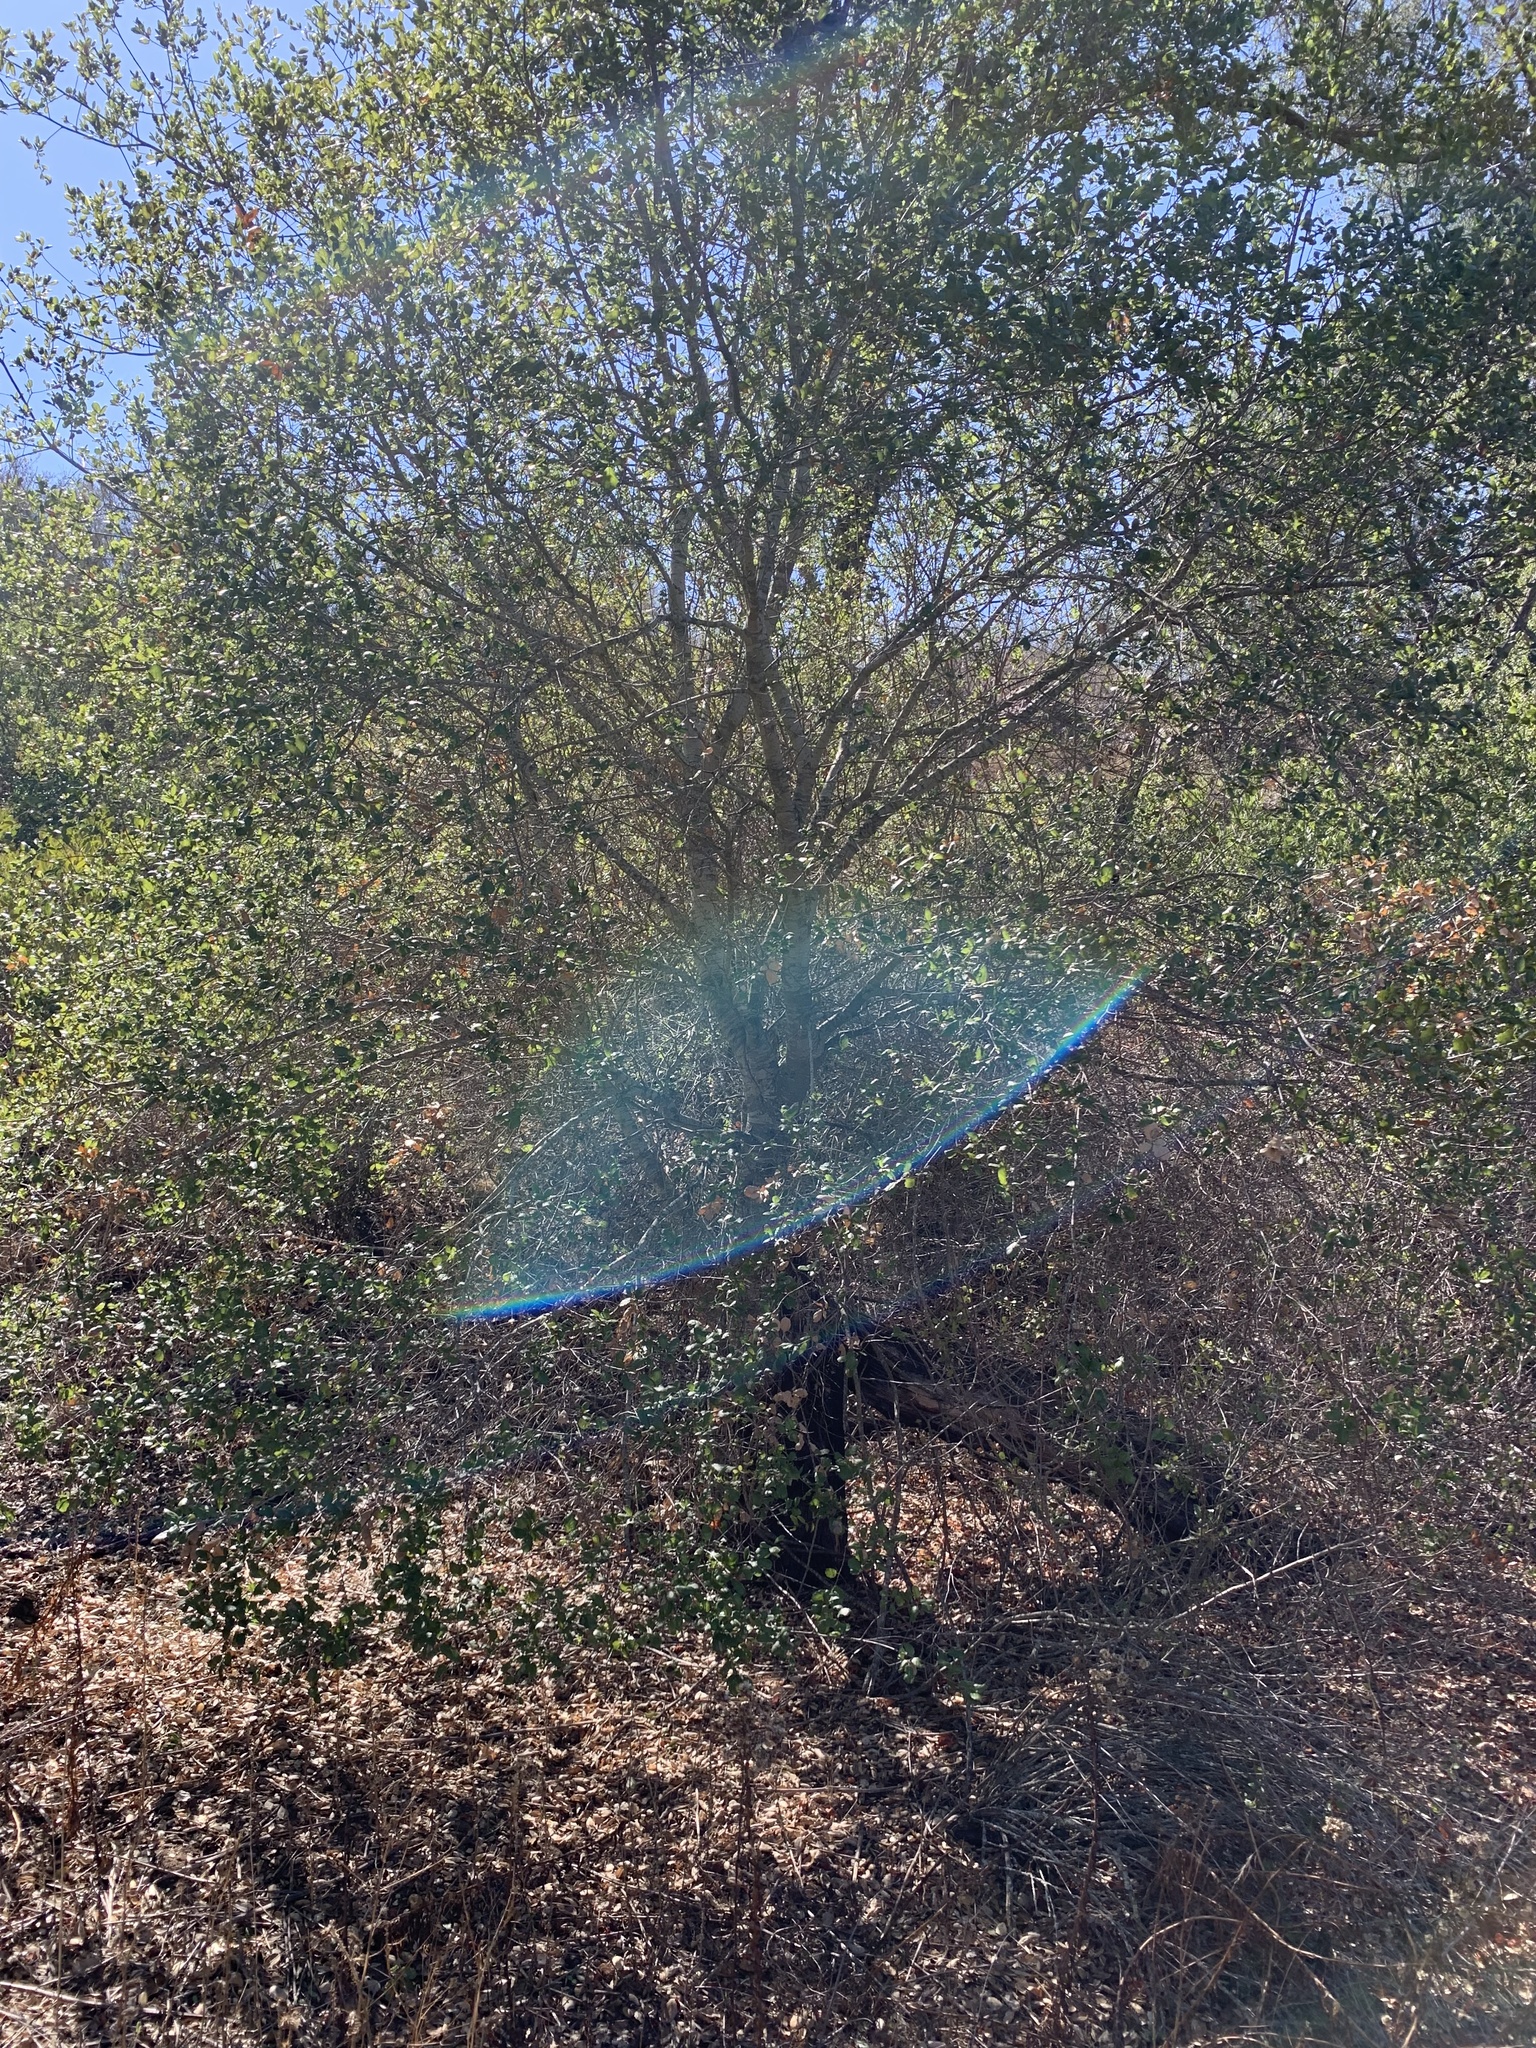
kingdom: Plantae
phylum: Tracheophyta
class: Magnoliopsida
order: Fagales
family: Fagaceae
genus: Quercus
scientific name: Quercus agrifolia
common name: California live oak
